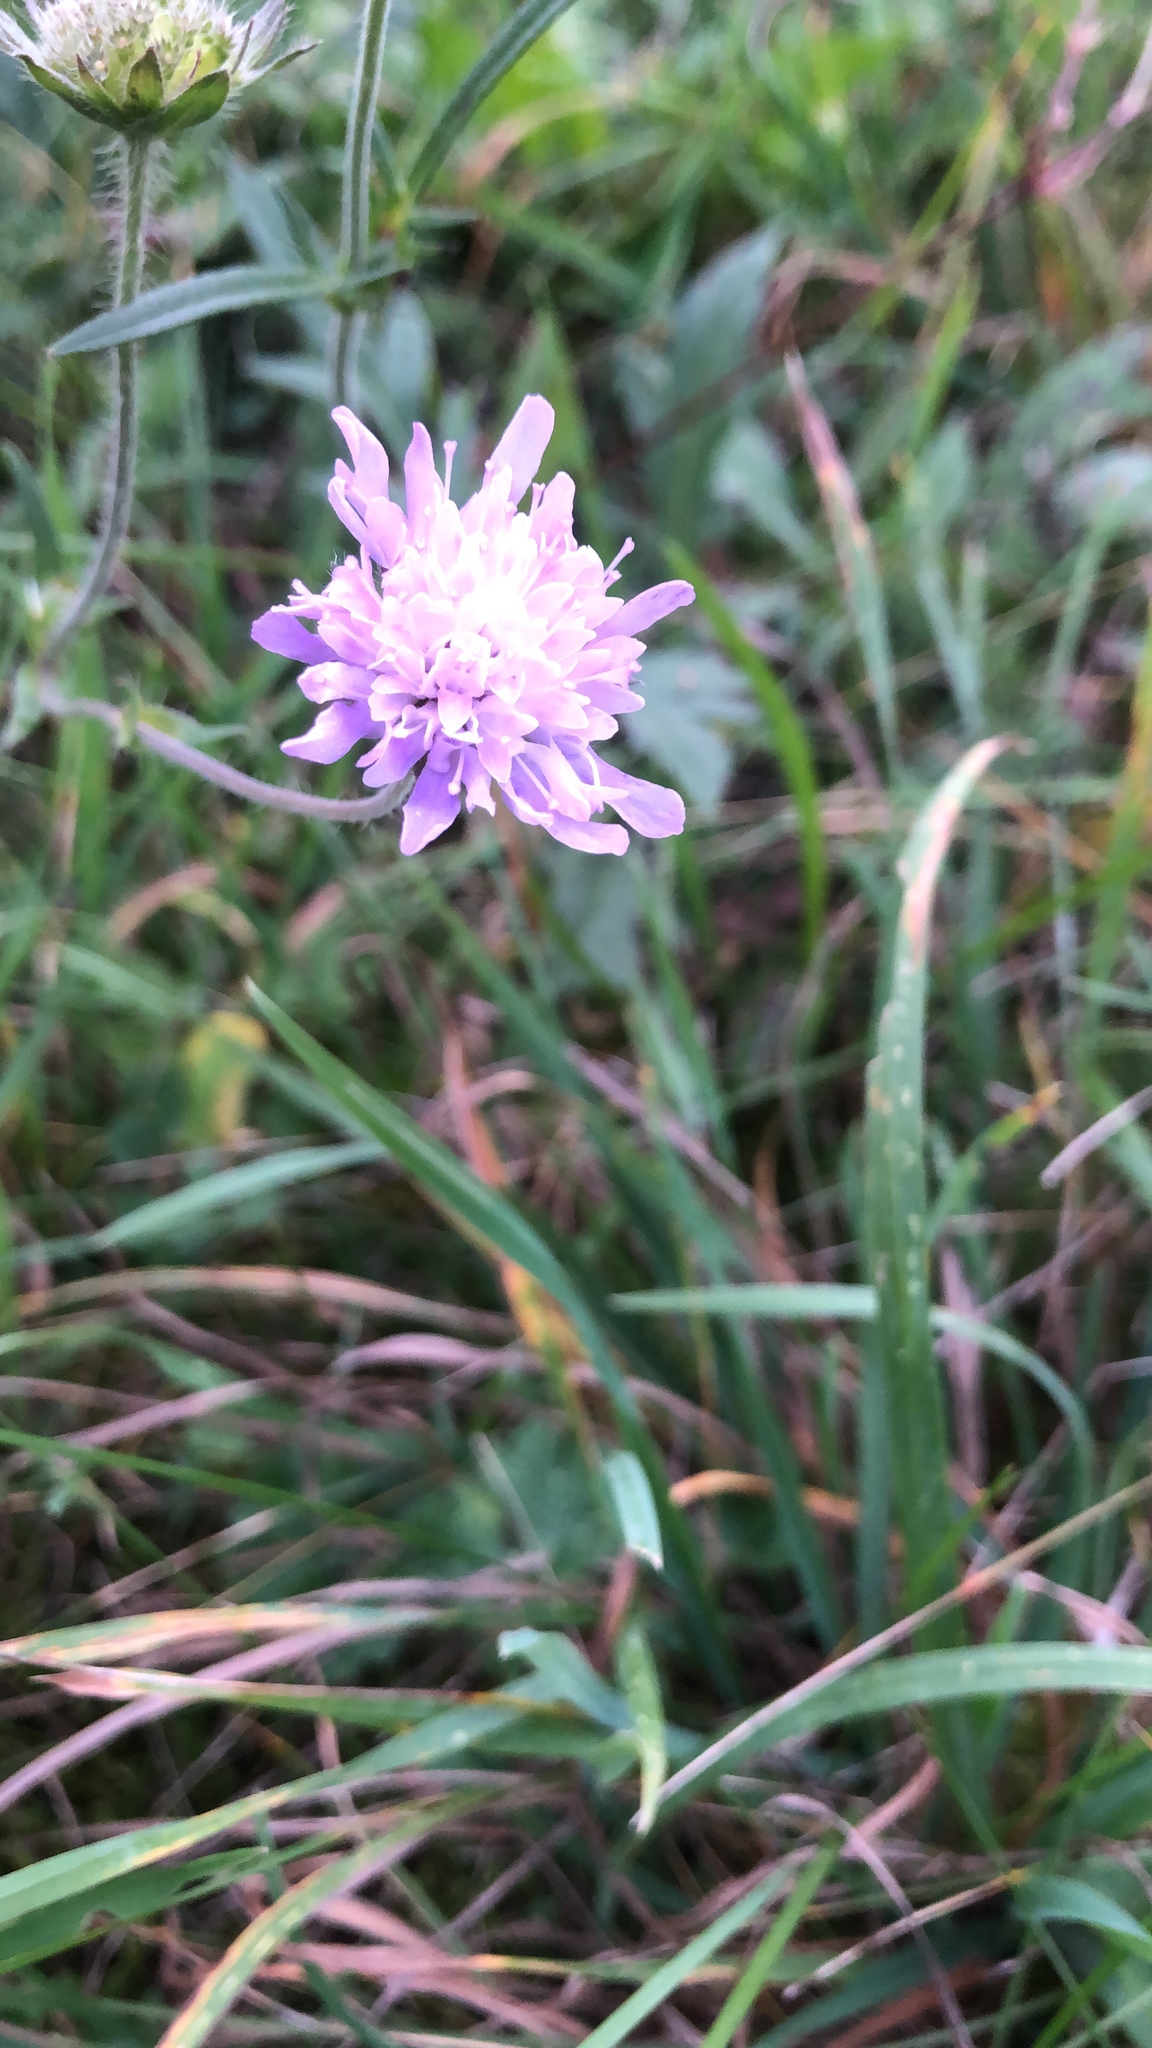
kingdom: Plantae
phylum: Tracheophyta
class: Magnoliopsida
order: Dipsacales
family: Caprifoliaceae
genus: Knautia
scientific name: Knautia arvensis
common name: Field scabiosa
